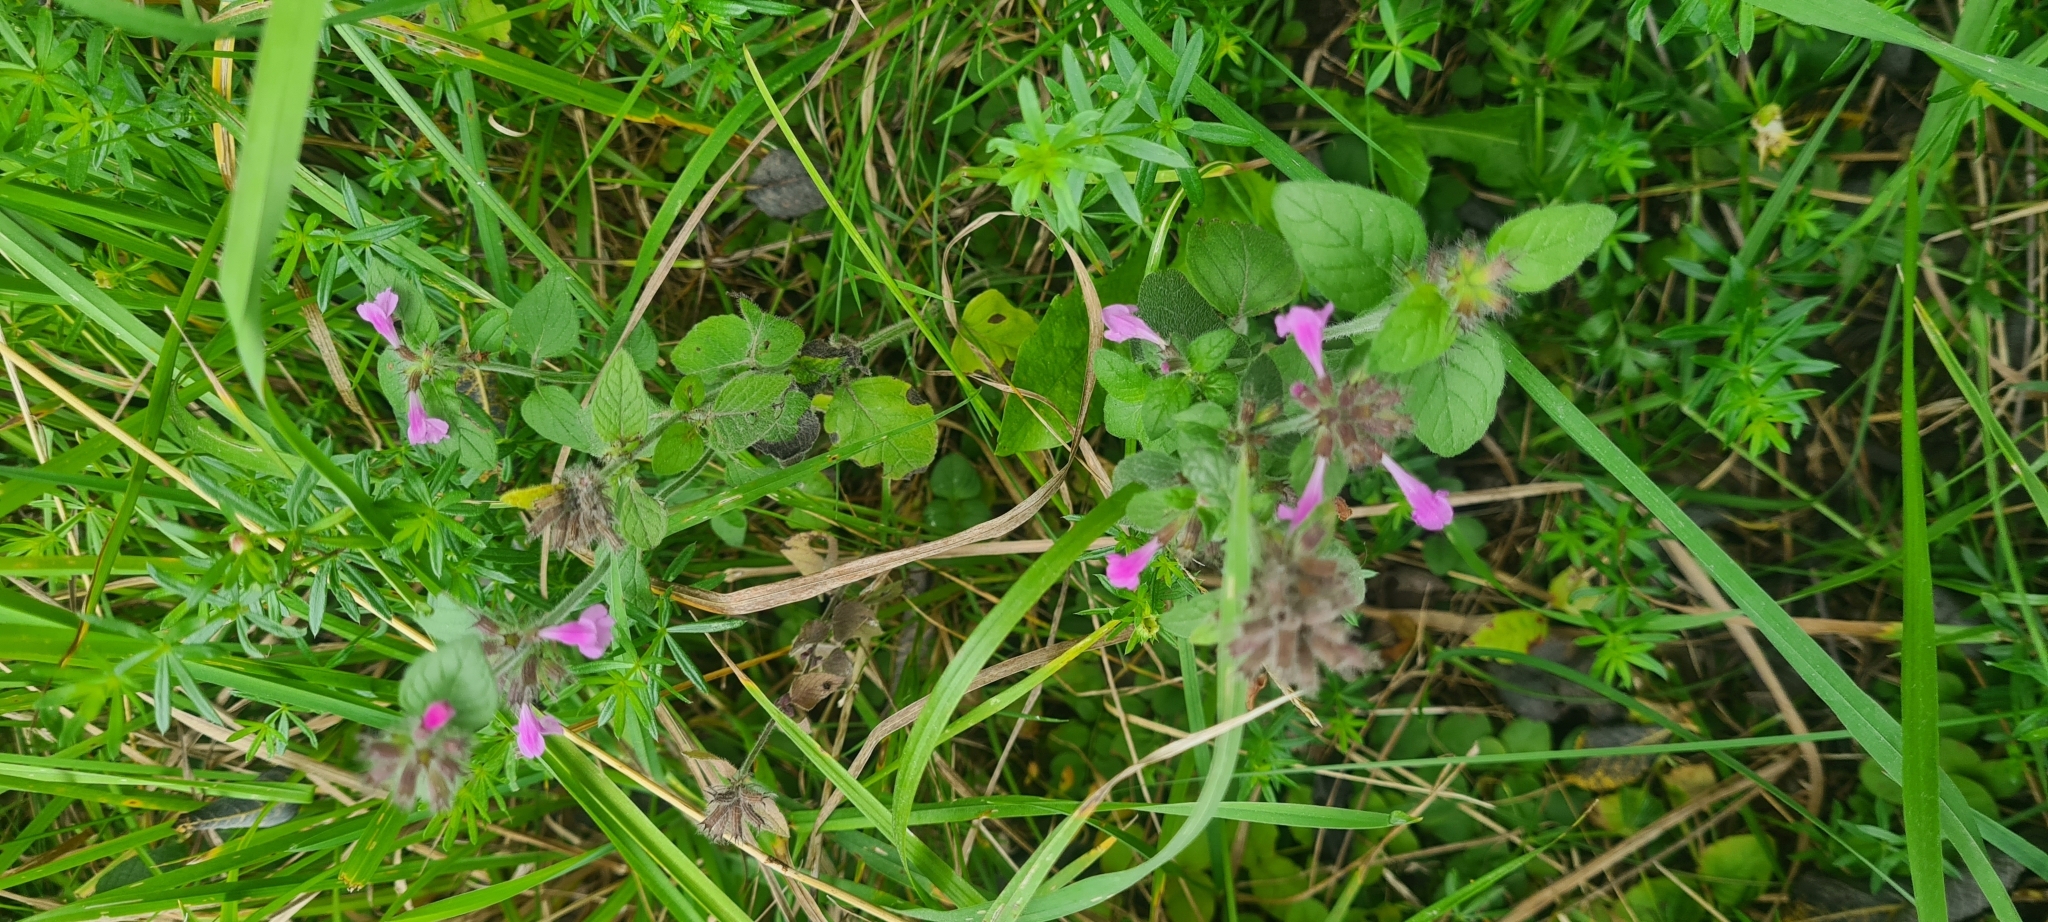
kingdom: Plantae
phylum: Tracheophyta
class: Magnoliopsida
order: Lamiales
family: Lamiaceae
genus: Clinopodium
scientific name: Clinopodium vulgare
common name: Wild basil
